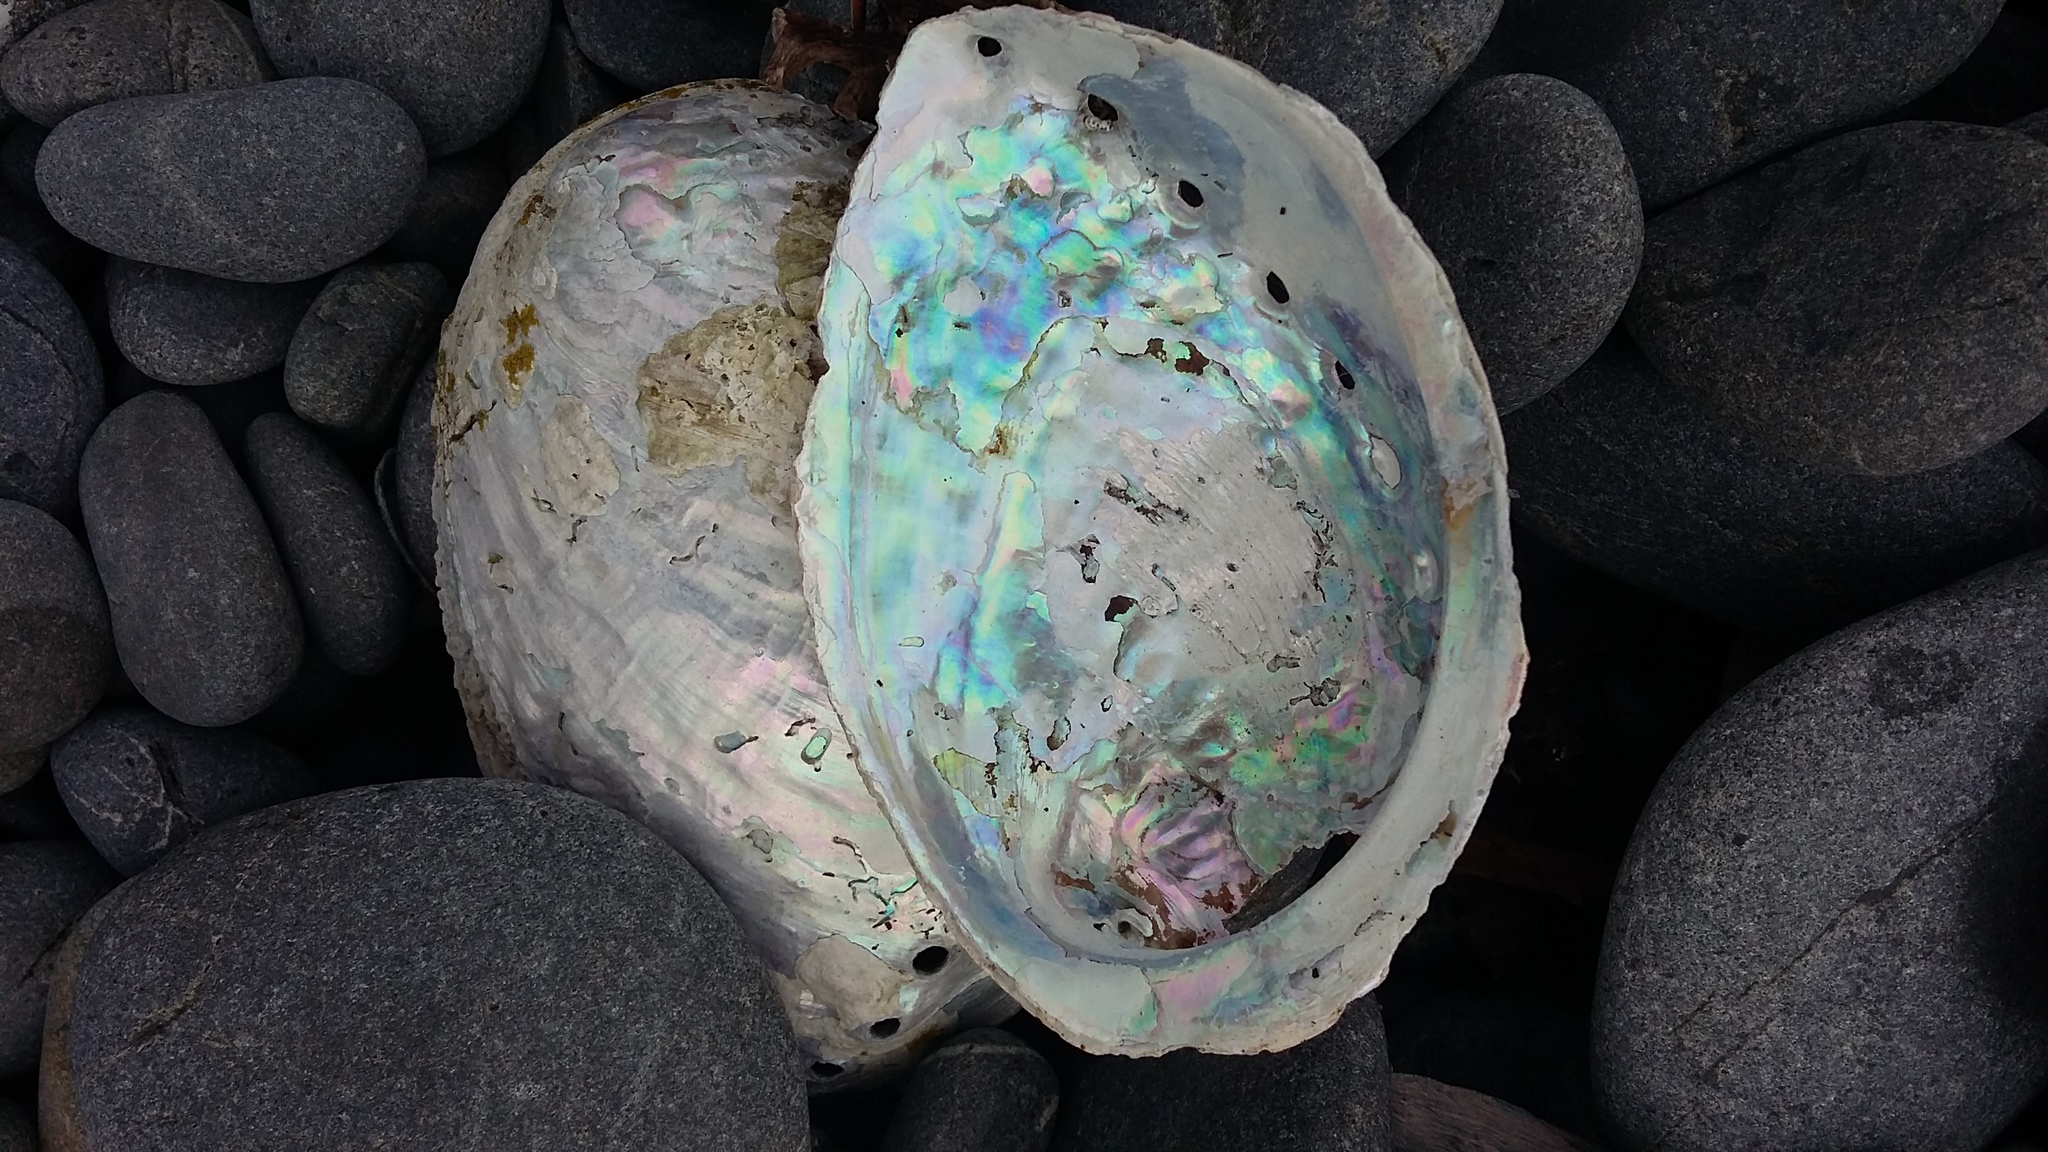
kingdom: Animalia
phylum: Mollusca
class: Gastropoda
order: Lepetellida
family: Haliotidae
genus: Haliotis
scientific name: Haliotis iris
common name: Abalone
